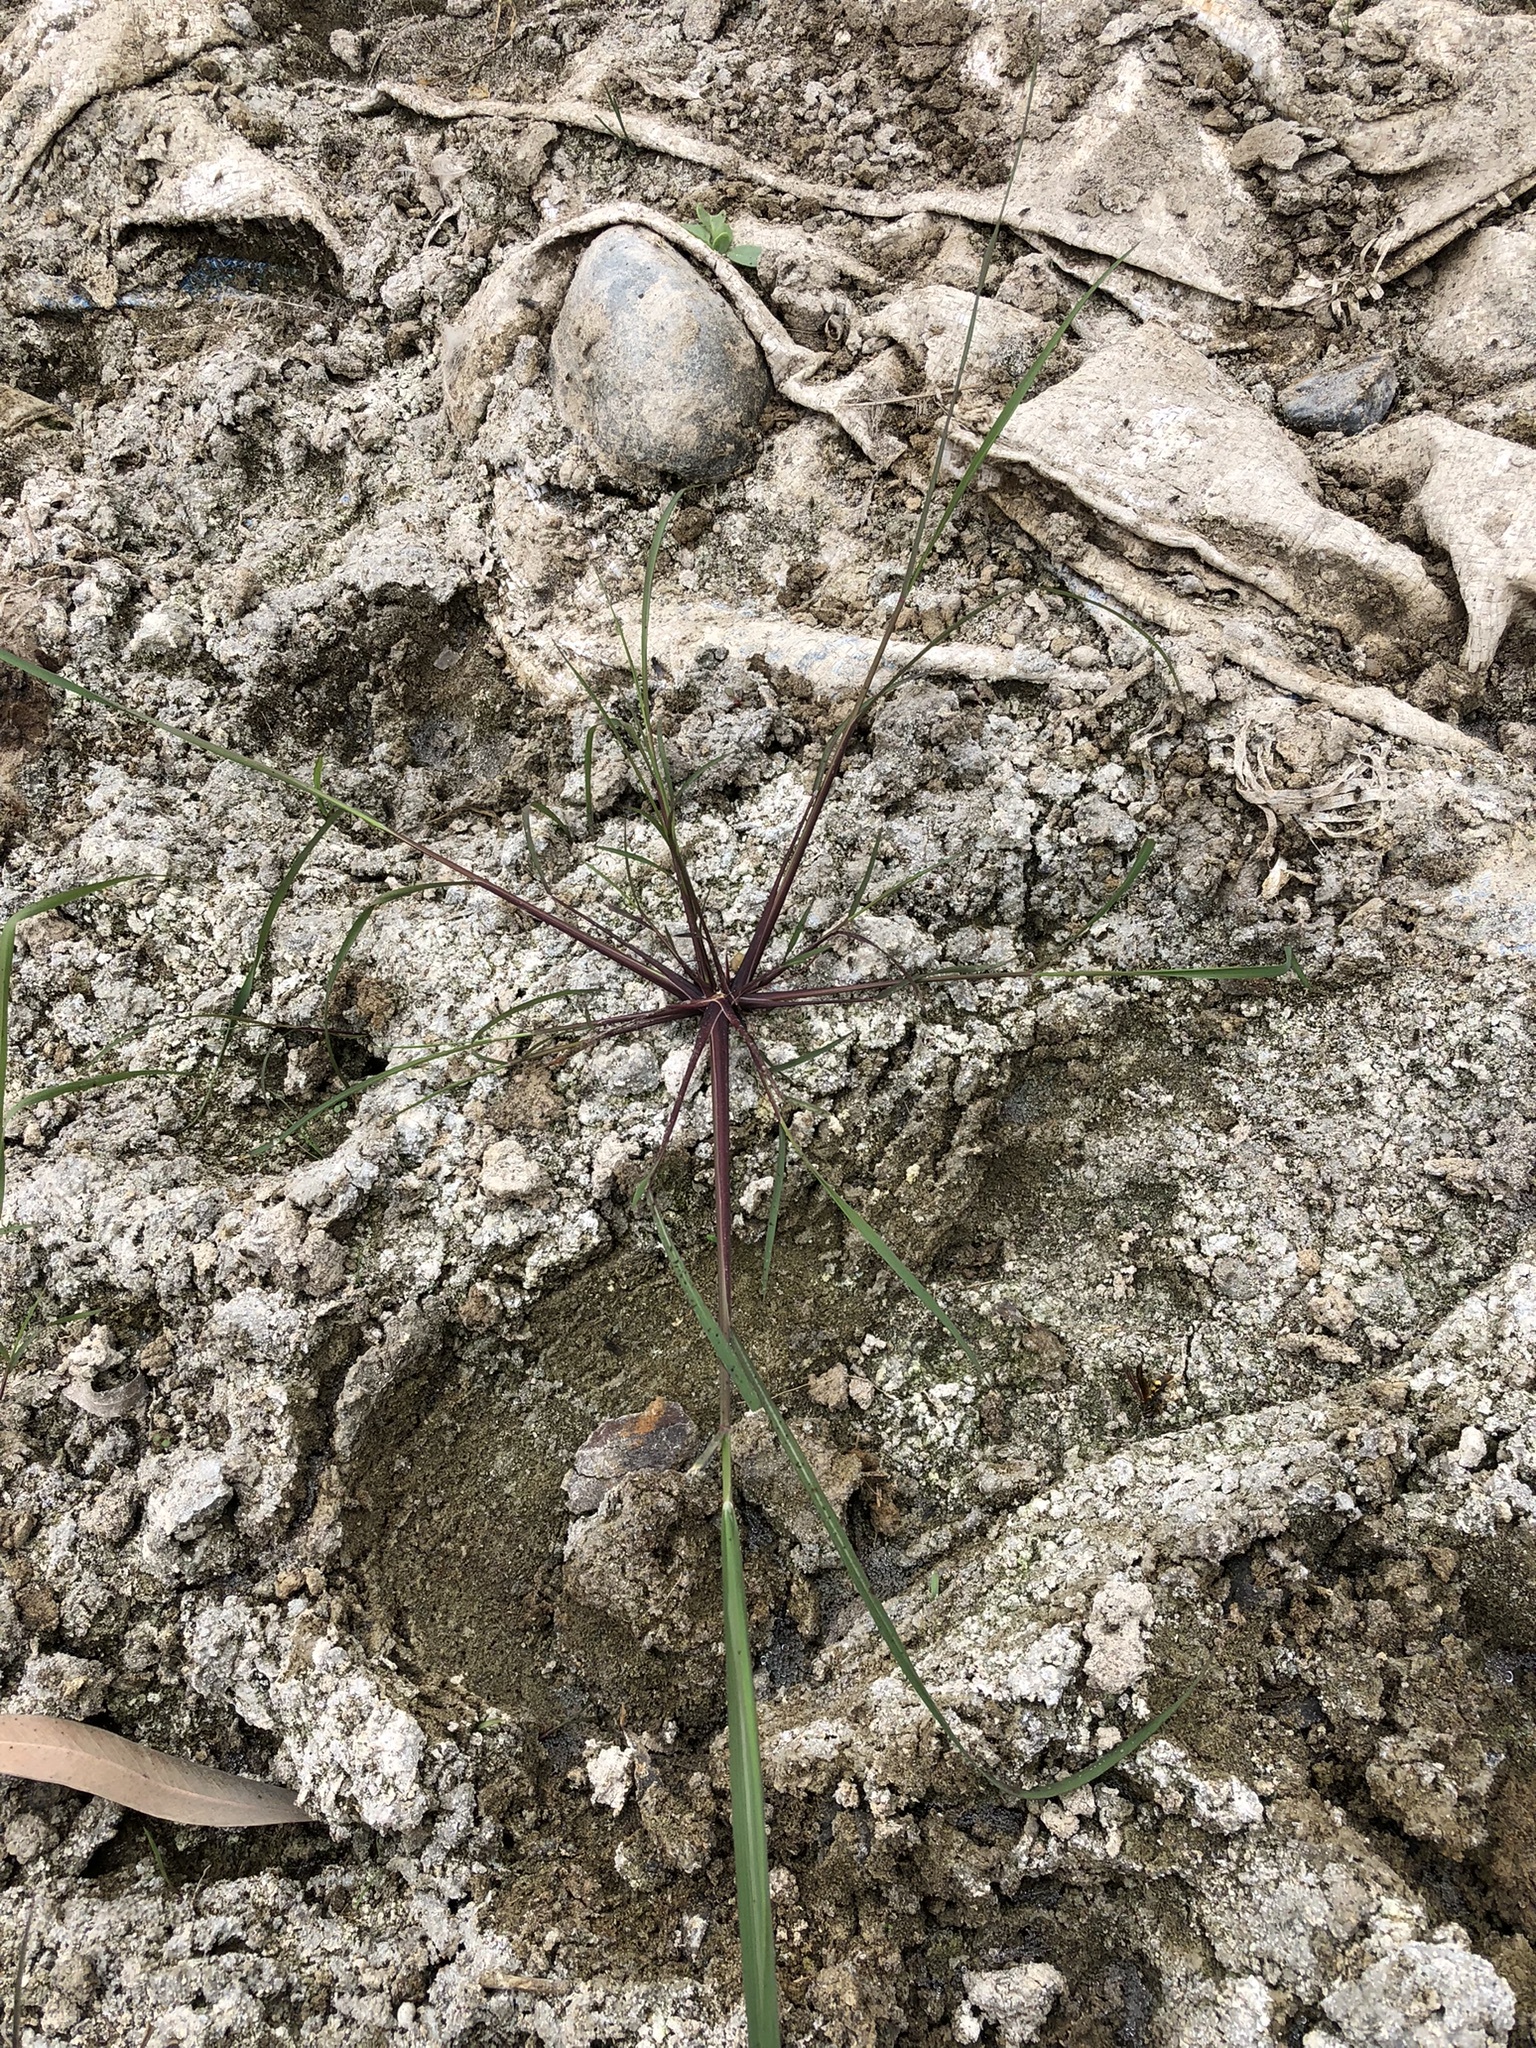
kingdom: Plantae
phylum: Tracheophyta
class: Liliopsida
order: Poales
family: Poaceae
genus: Cynodon
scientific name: Cynodon dactylon
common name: Bermuda grass
